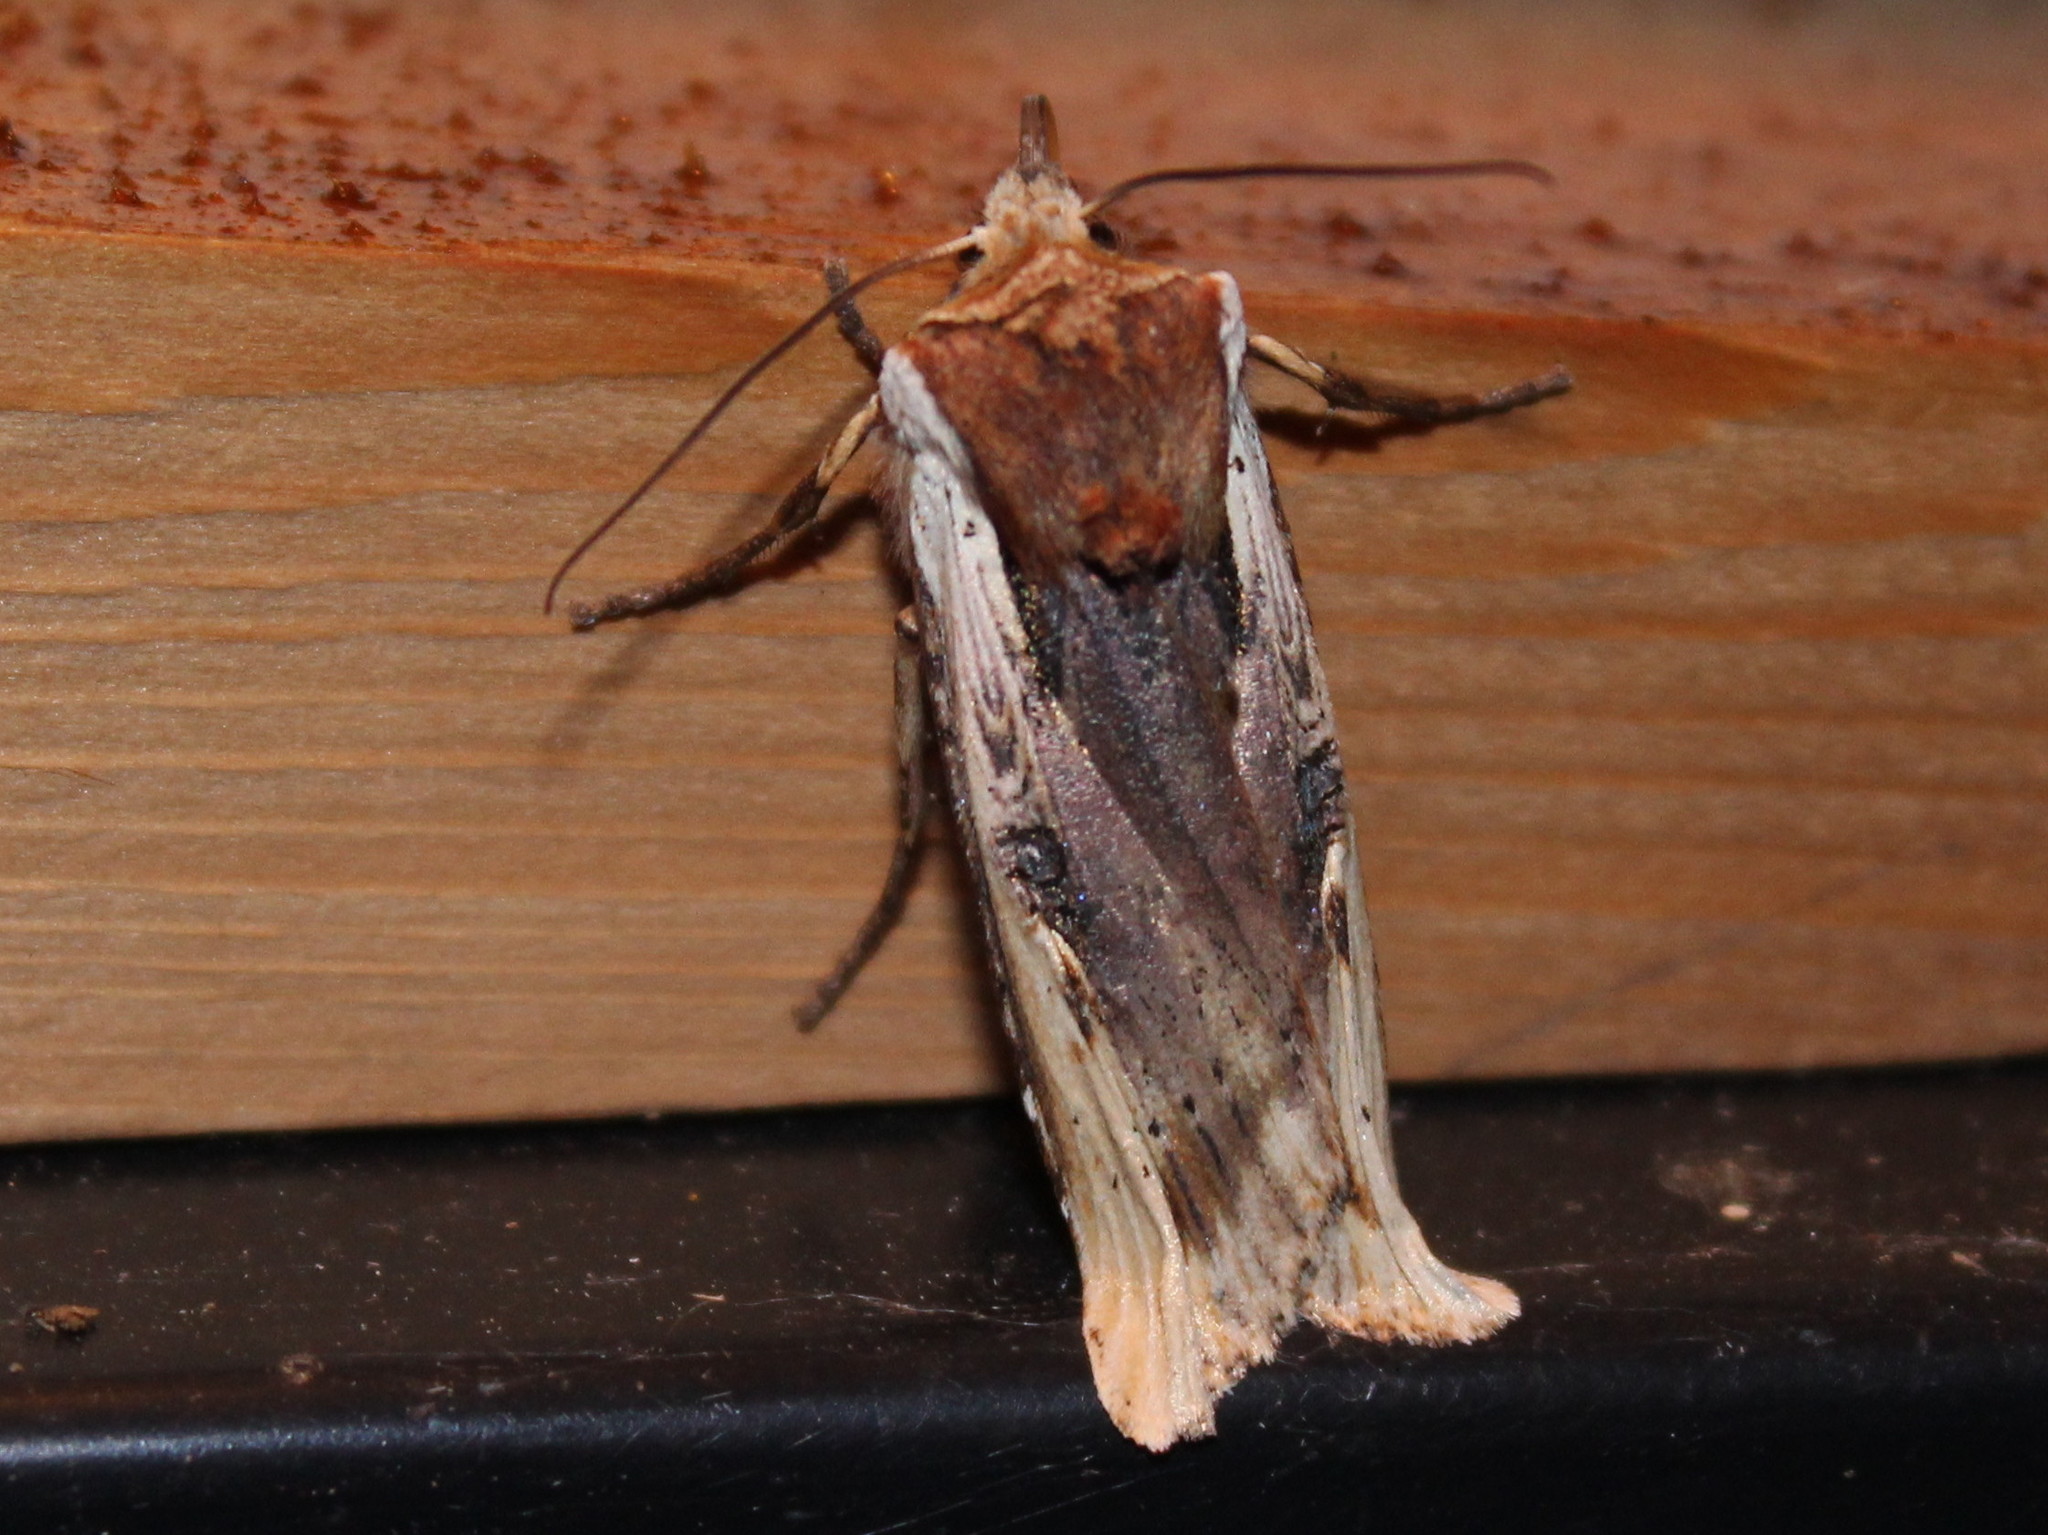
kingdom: Animalia
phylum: Arthropoda
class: Insecta
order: Lepidoptera
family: Noctuidae
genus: Xylena
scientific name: Xylena curvimacula
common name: Dot-and-dash swordgrass moth
